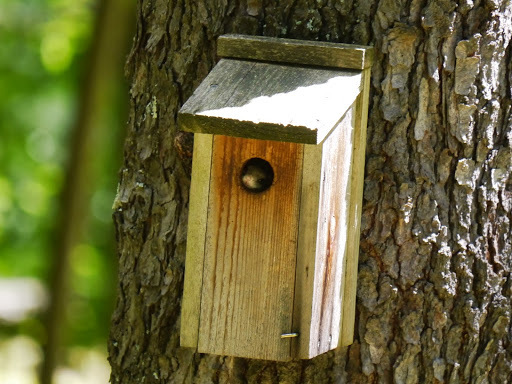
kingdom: Animalia
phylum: Chordata
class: Mammalia
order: Rodentia
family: Sciuridae
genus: Glaucomys
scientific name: Glaucomys volans
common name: Southern flying squirrel
